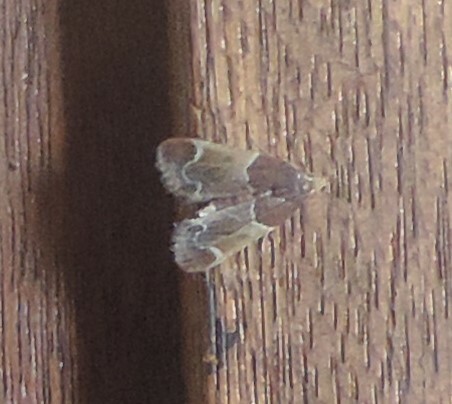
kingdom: Animalia
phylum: Arthropoda
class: Insecta
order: Lepidoptera
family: Pyralidae
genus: Pyralis
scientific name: Pyralis farinalis
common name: Meal moth
